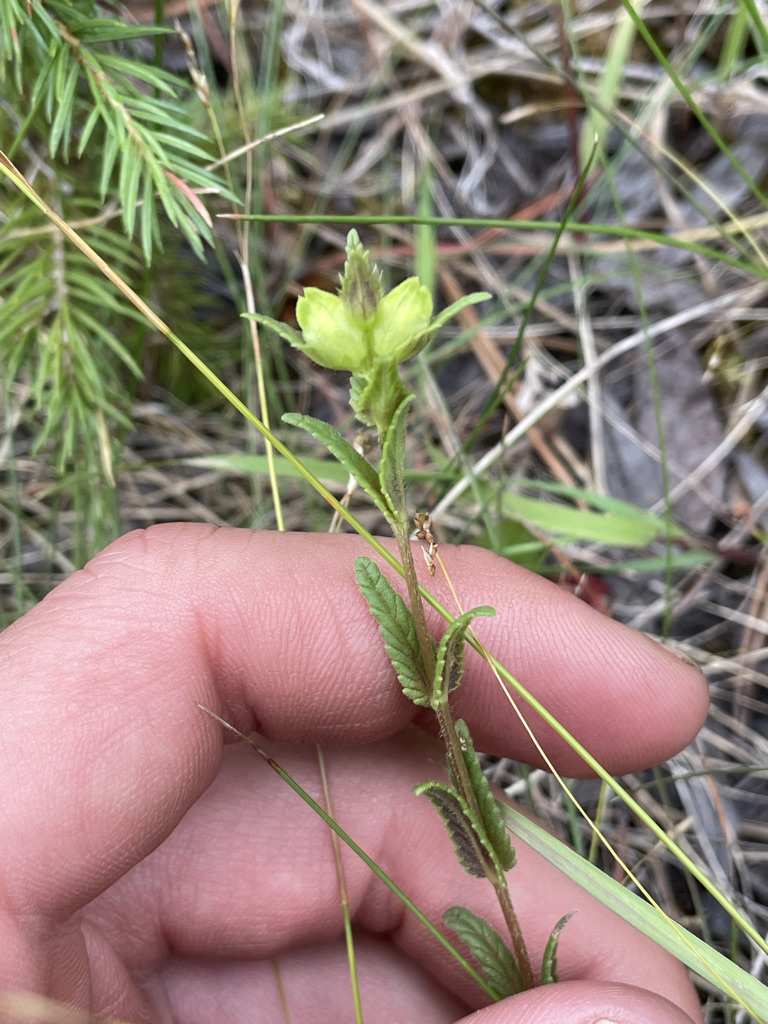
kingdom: Plantae
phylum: Tracheophyta
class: Magnoliopsida
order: Lamiales
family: Orobanchaceae
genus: Rhinanthus
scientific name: Rhinanthus groenlandicus
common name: Little yellow rattle
